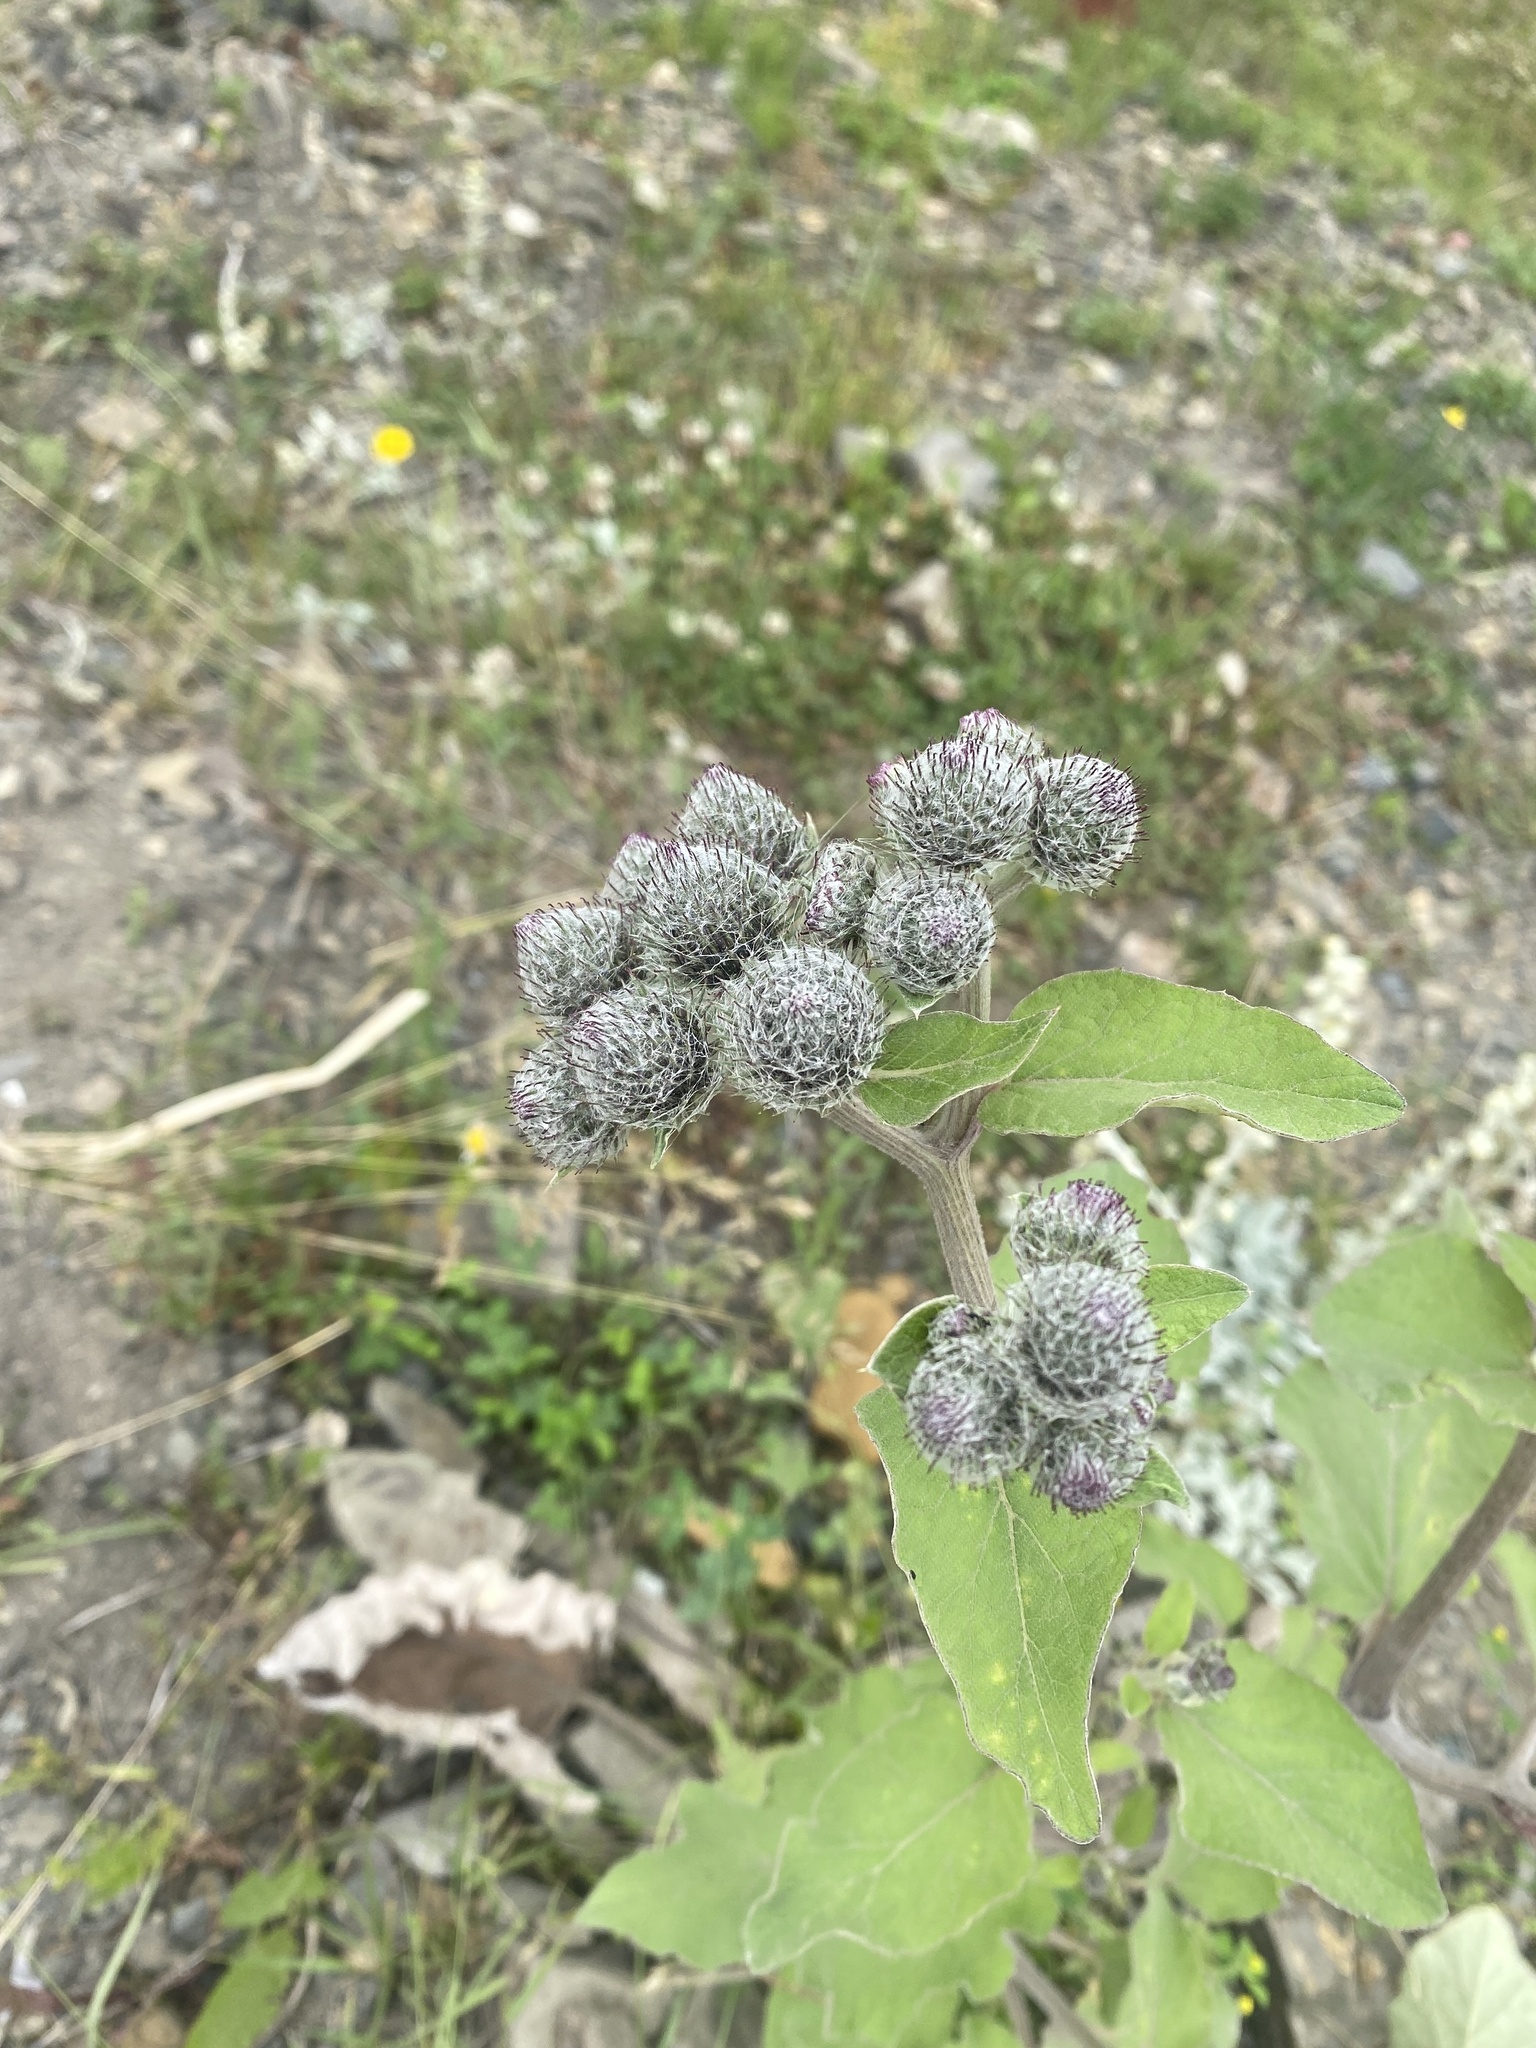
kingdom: Plantae
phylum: Tracheophyta
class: Magnoliopsida
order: Asterales
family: Asteraceae
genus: Arctium
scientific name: Arctium tomentosum
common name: Woolly burdock
